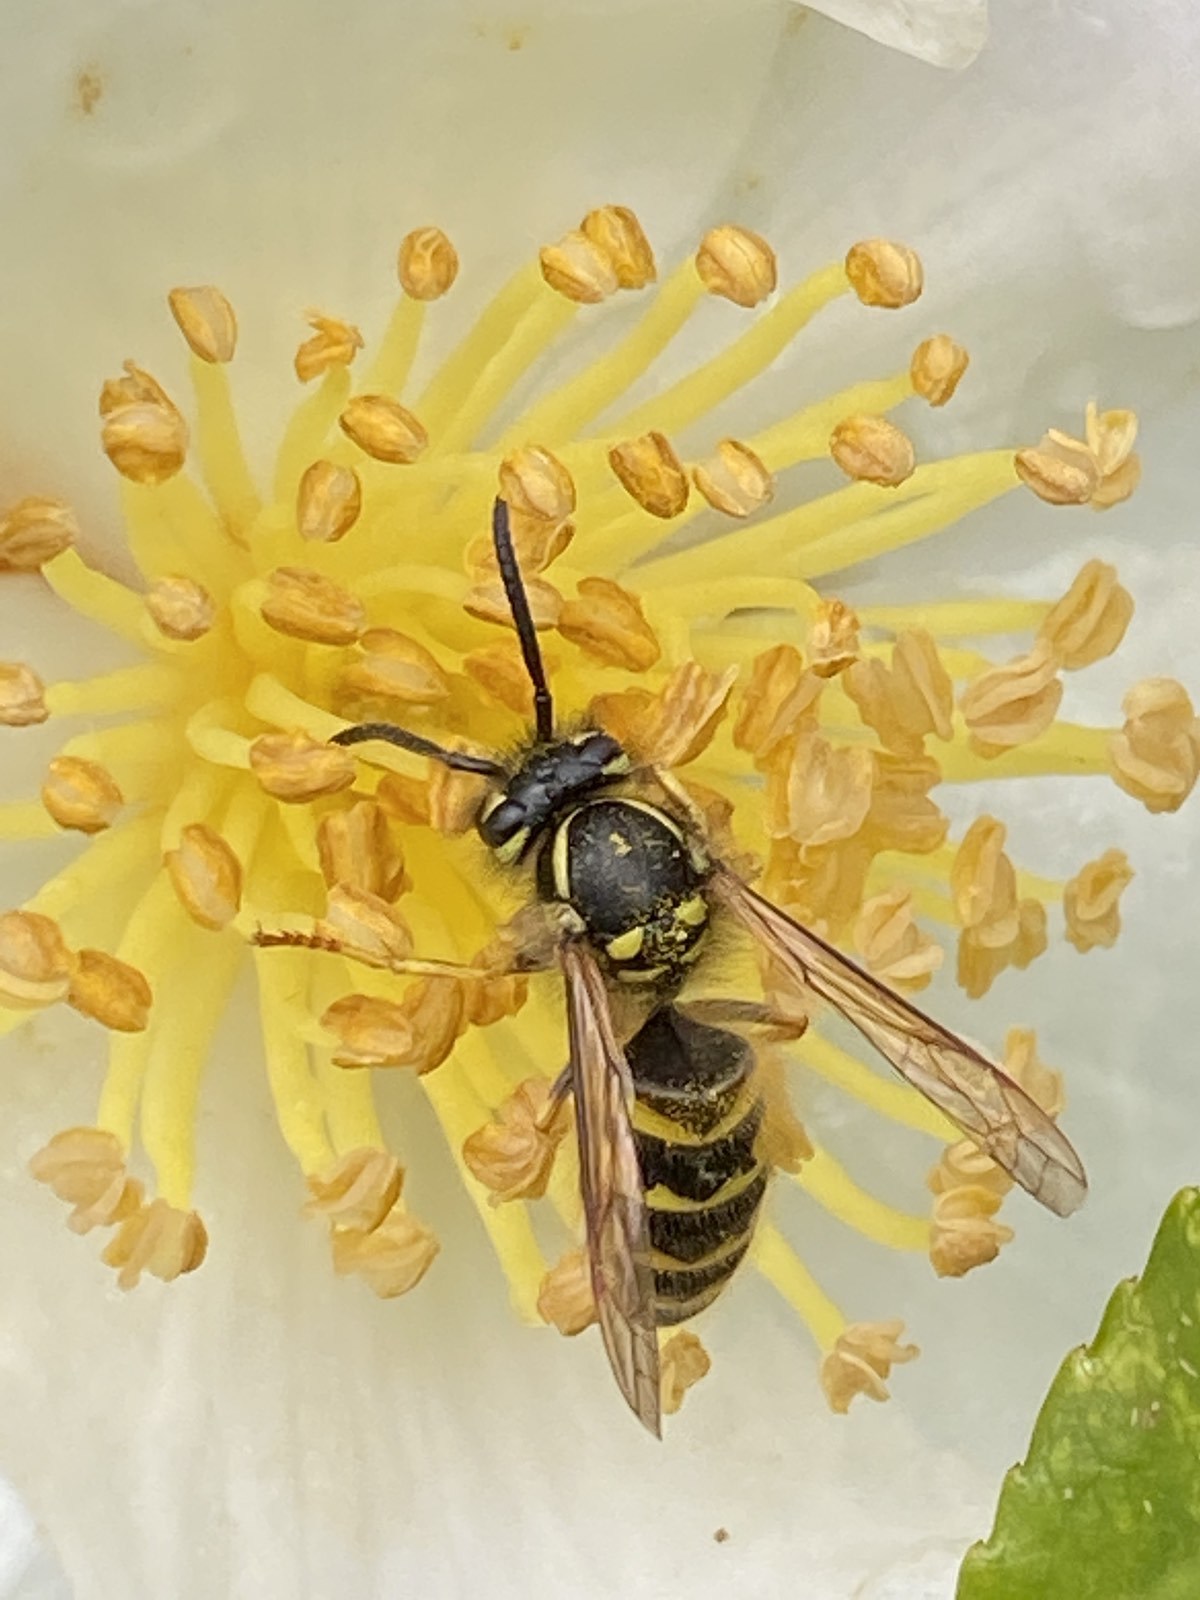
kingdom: Animalia
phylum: Arthropoda
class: Insecta
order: Hymenoptera
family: Vespidae
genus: Vespula
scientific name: Vespula vulgaris
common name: Common wasp
